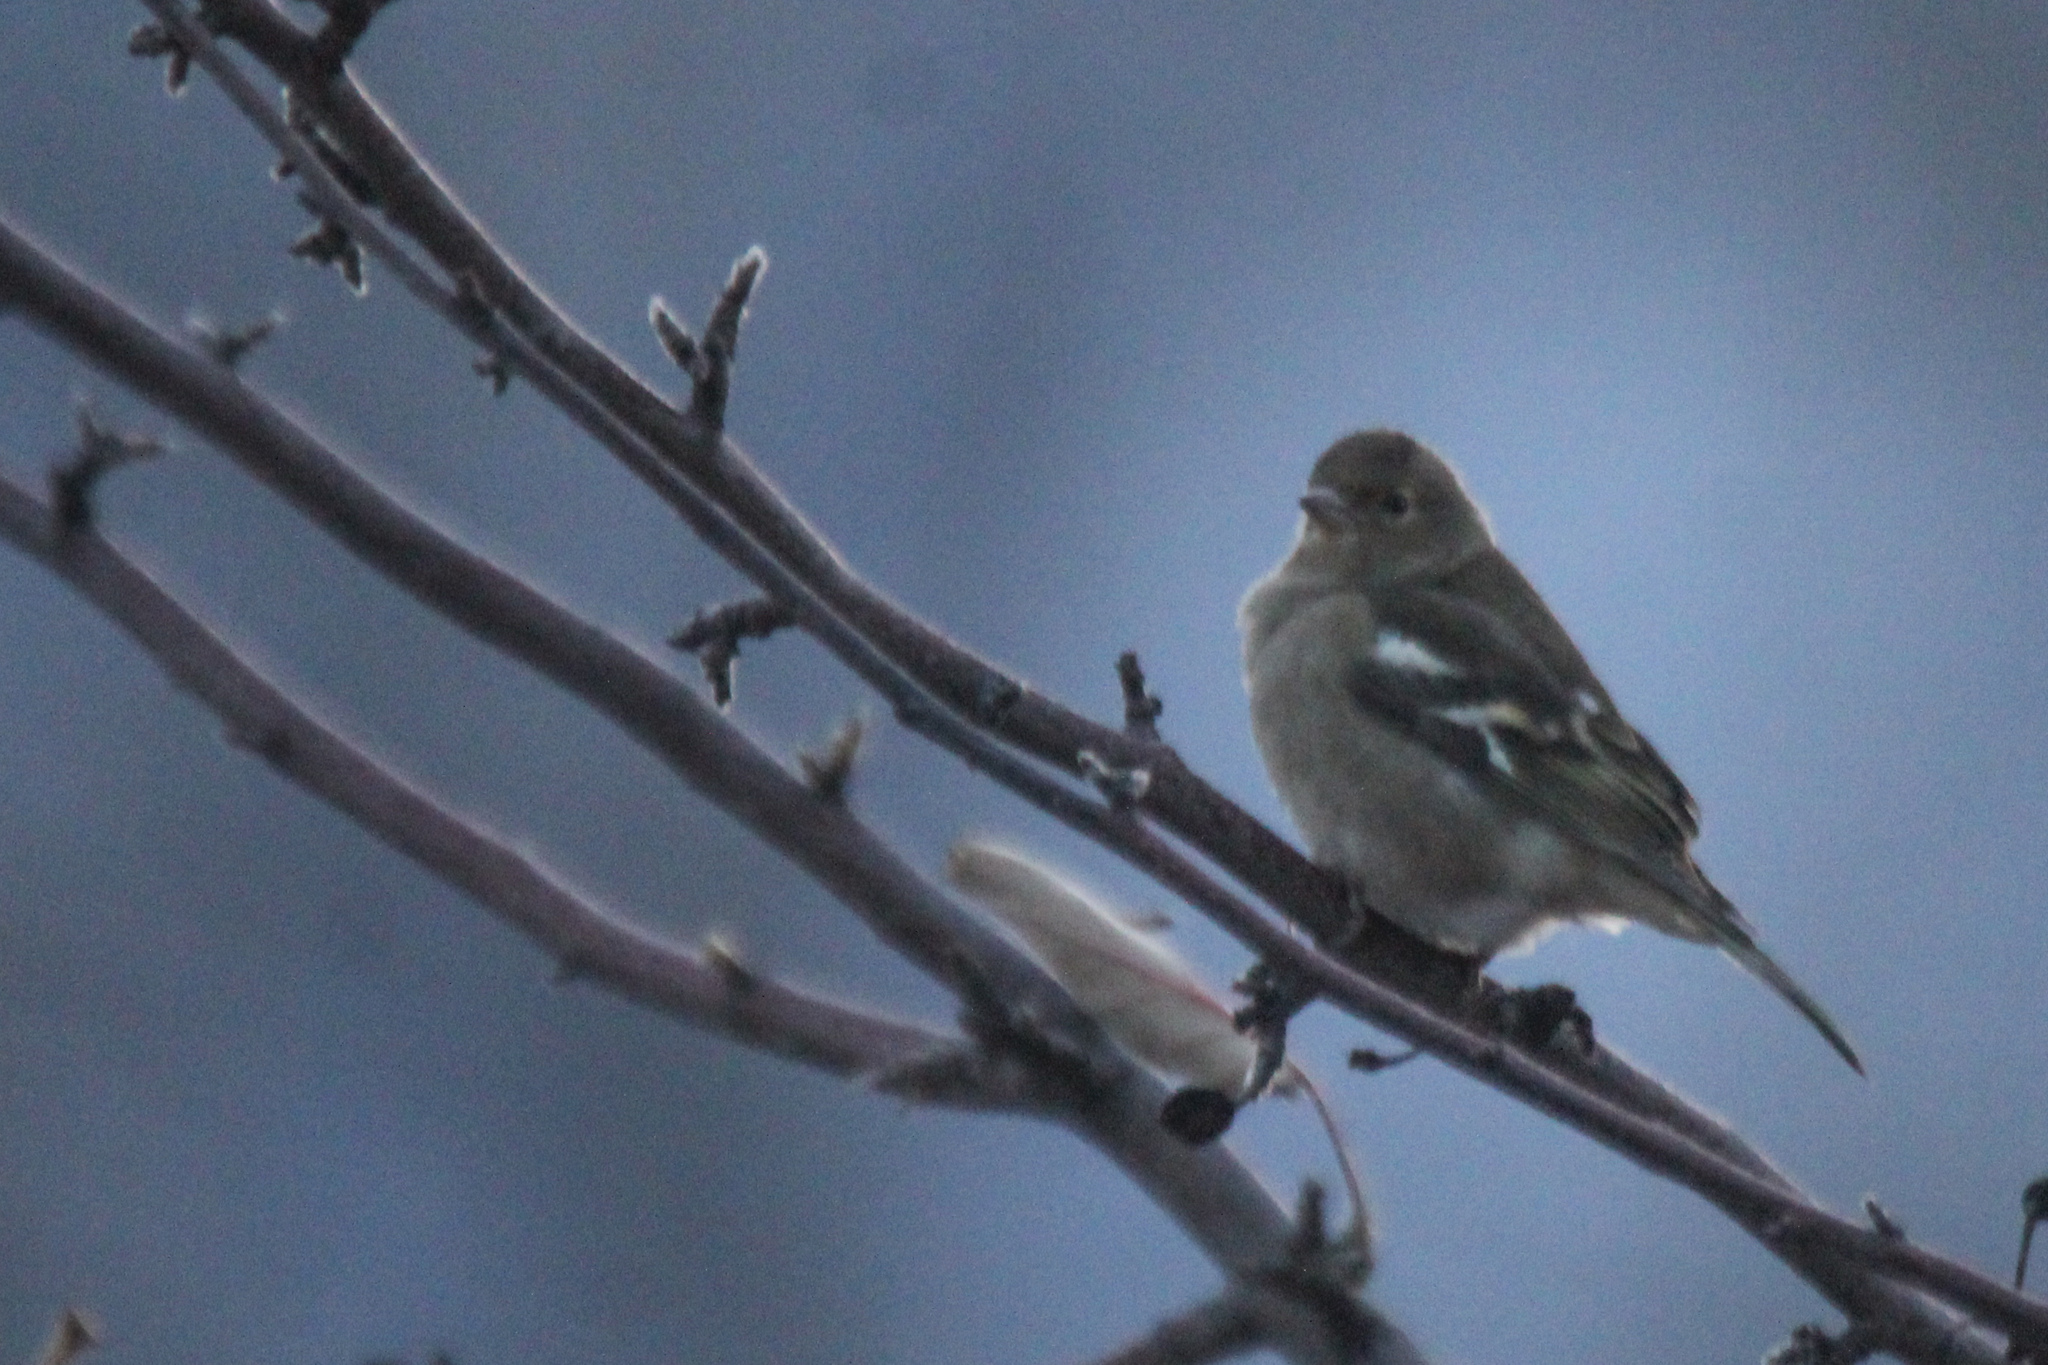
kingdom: Animalia
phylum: Chordata
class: Aves
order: Passeriformes
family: Fringillidae
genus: Fringilla
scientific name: Fringilla coelebs
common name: Common chaffinch
